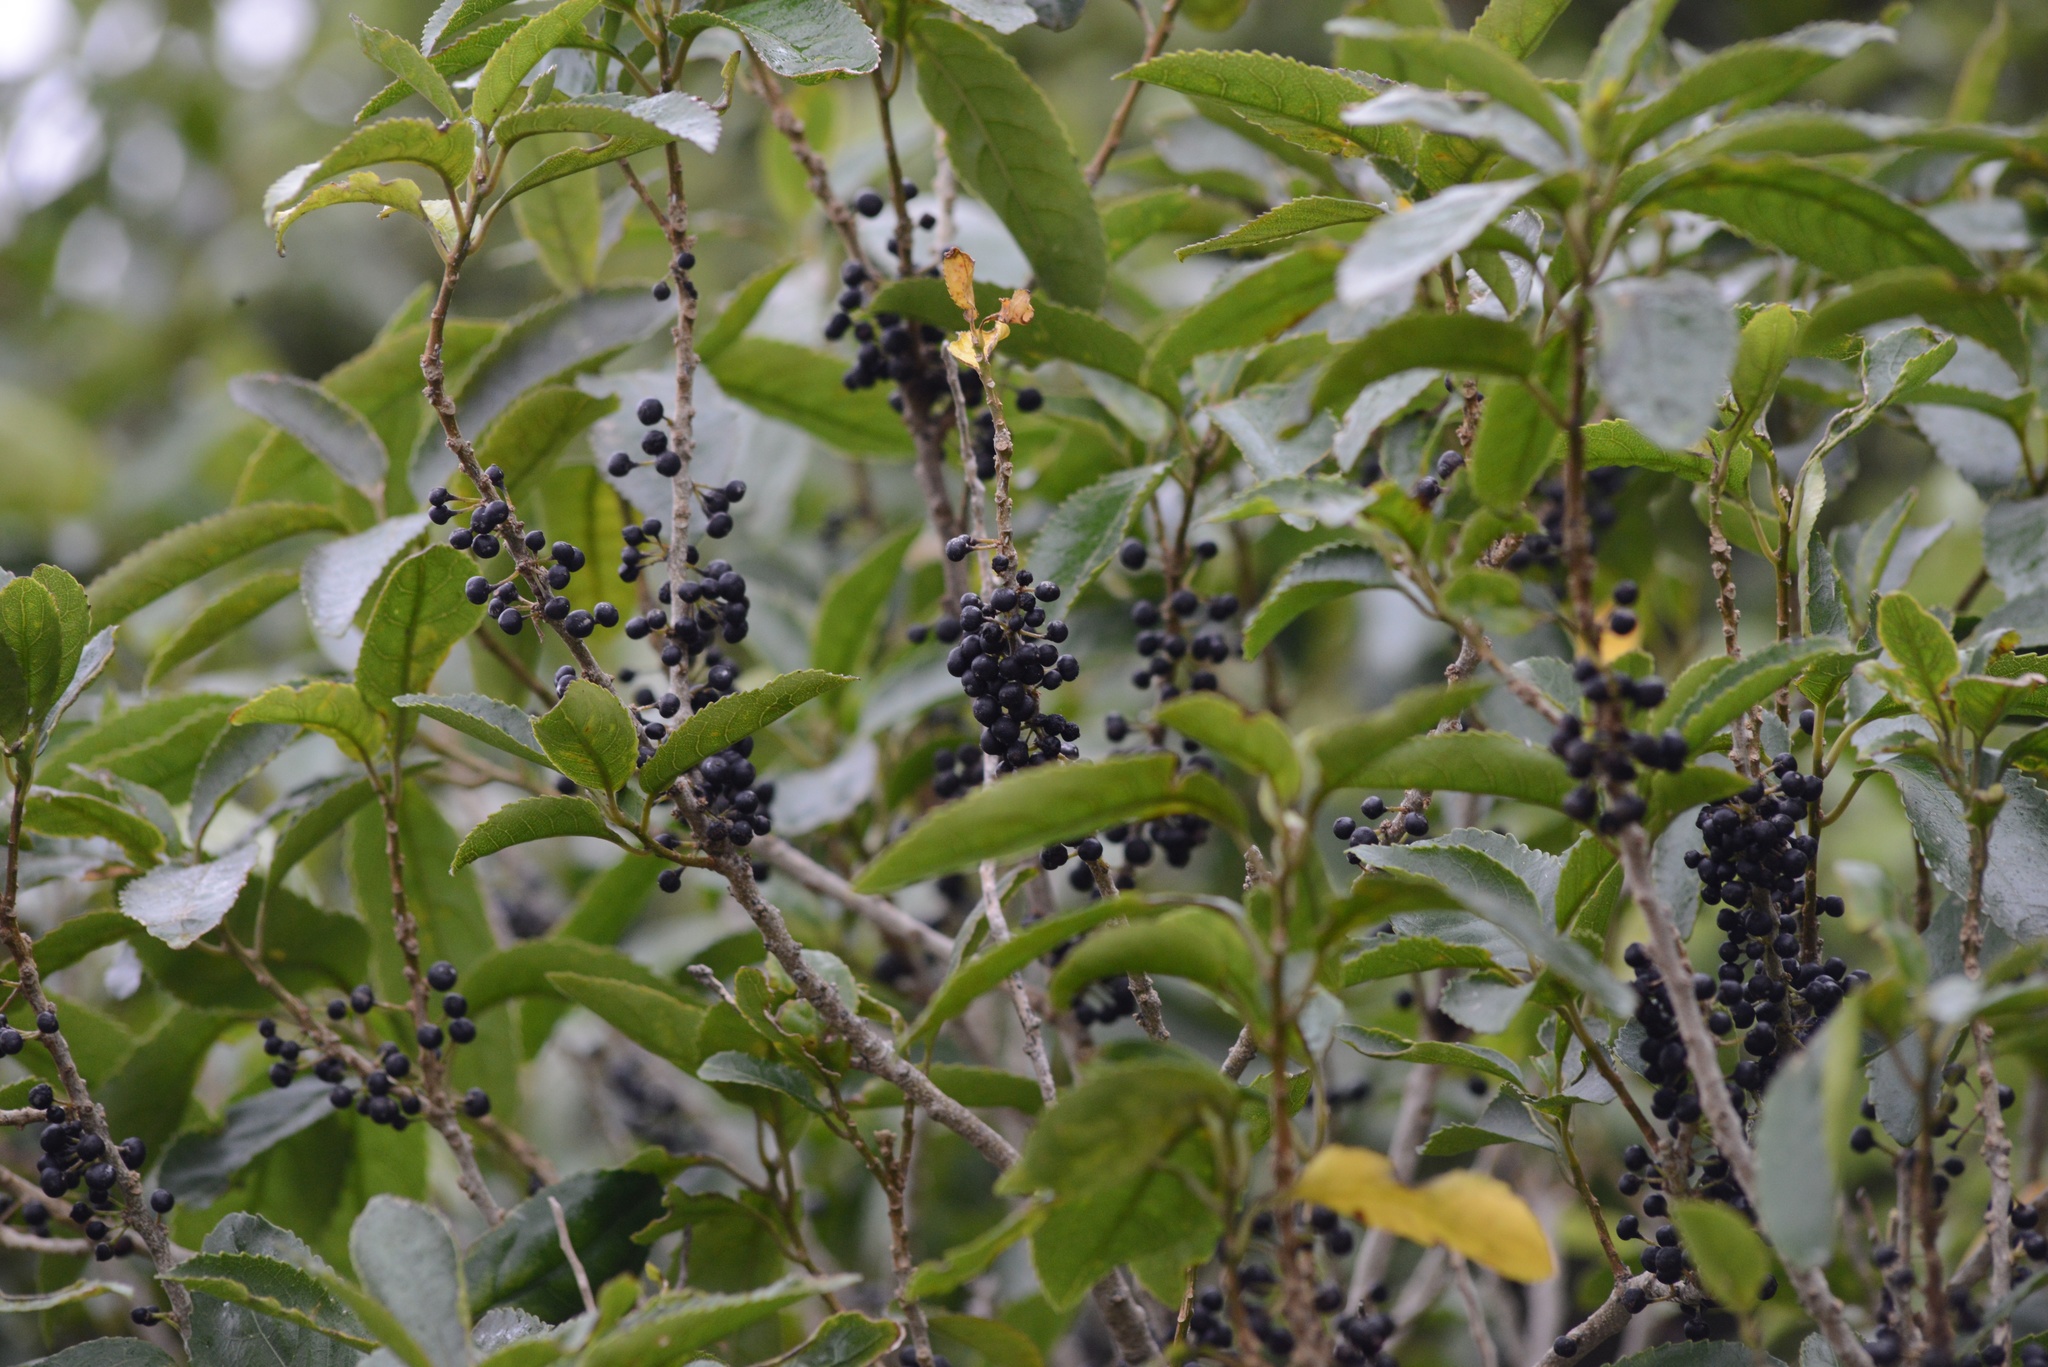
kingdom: Plantae
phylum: Tracheophyta
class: Magnoliopsida
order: Malpighiales
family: Violaceae
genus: Melicytus
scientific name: Melicytus ramiflorus
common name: Mahoe
